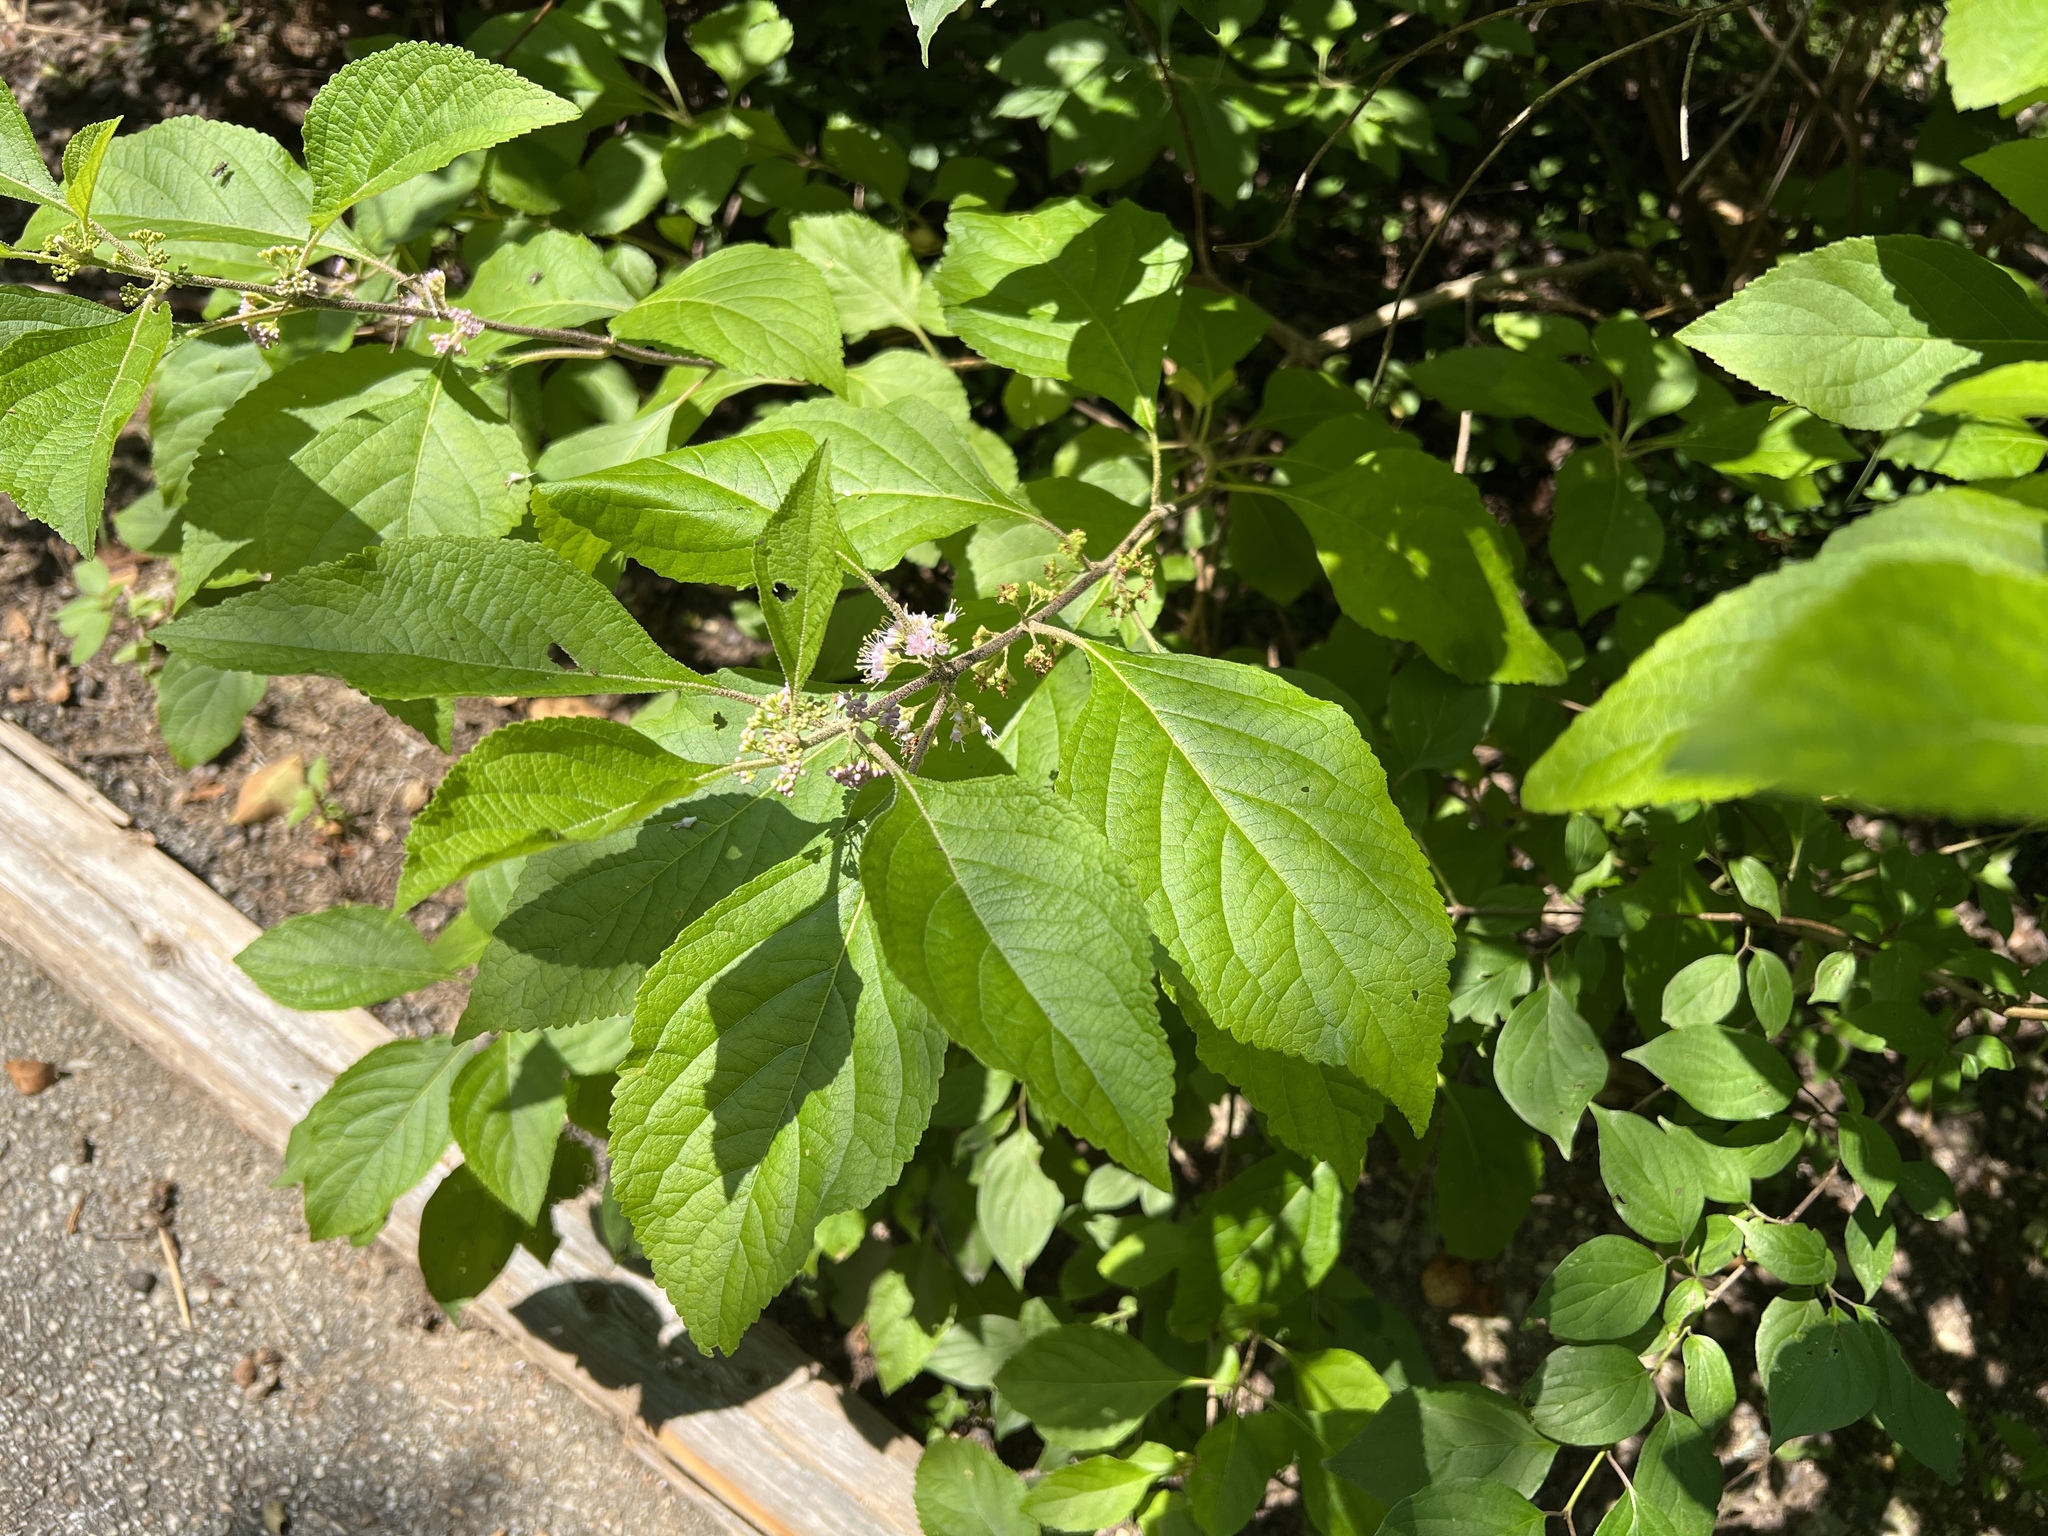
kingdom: Plantae
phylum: Tracheophyta
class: Magnoliopsida
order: Lamiales
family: Lamiaceae
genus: Callicarpa
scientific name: Callicarpa americana
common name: American beautyberry
